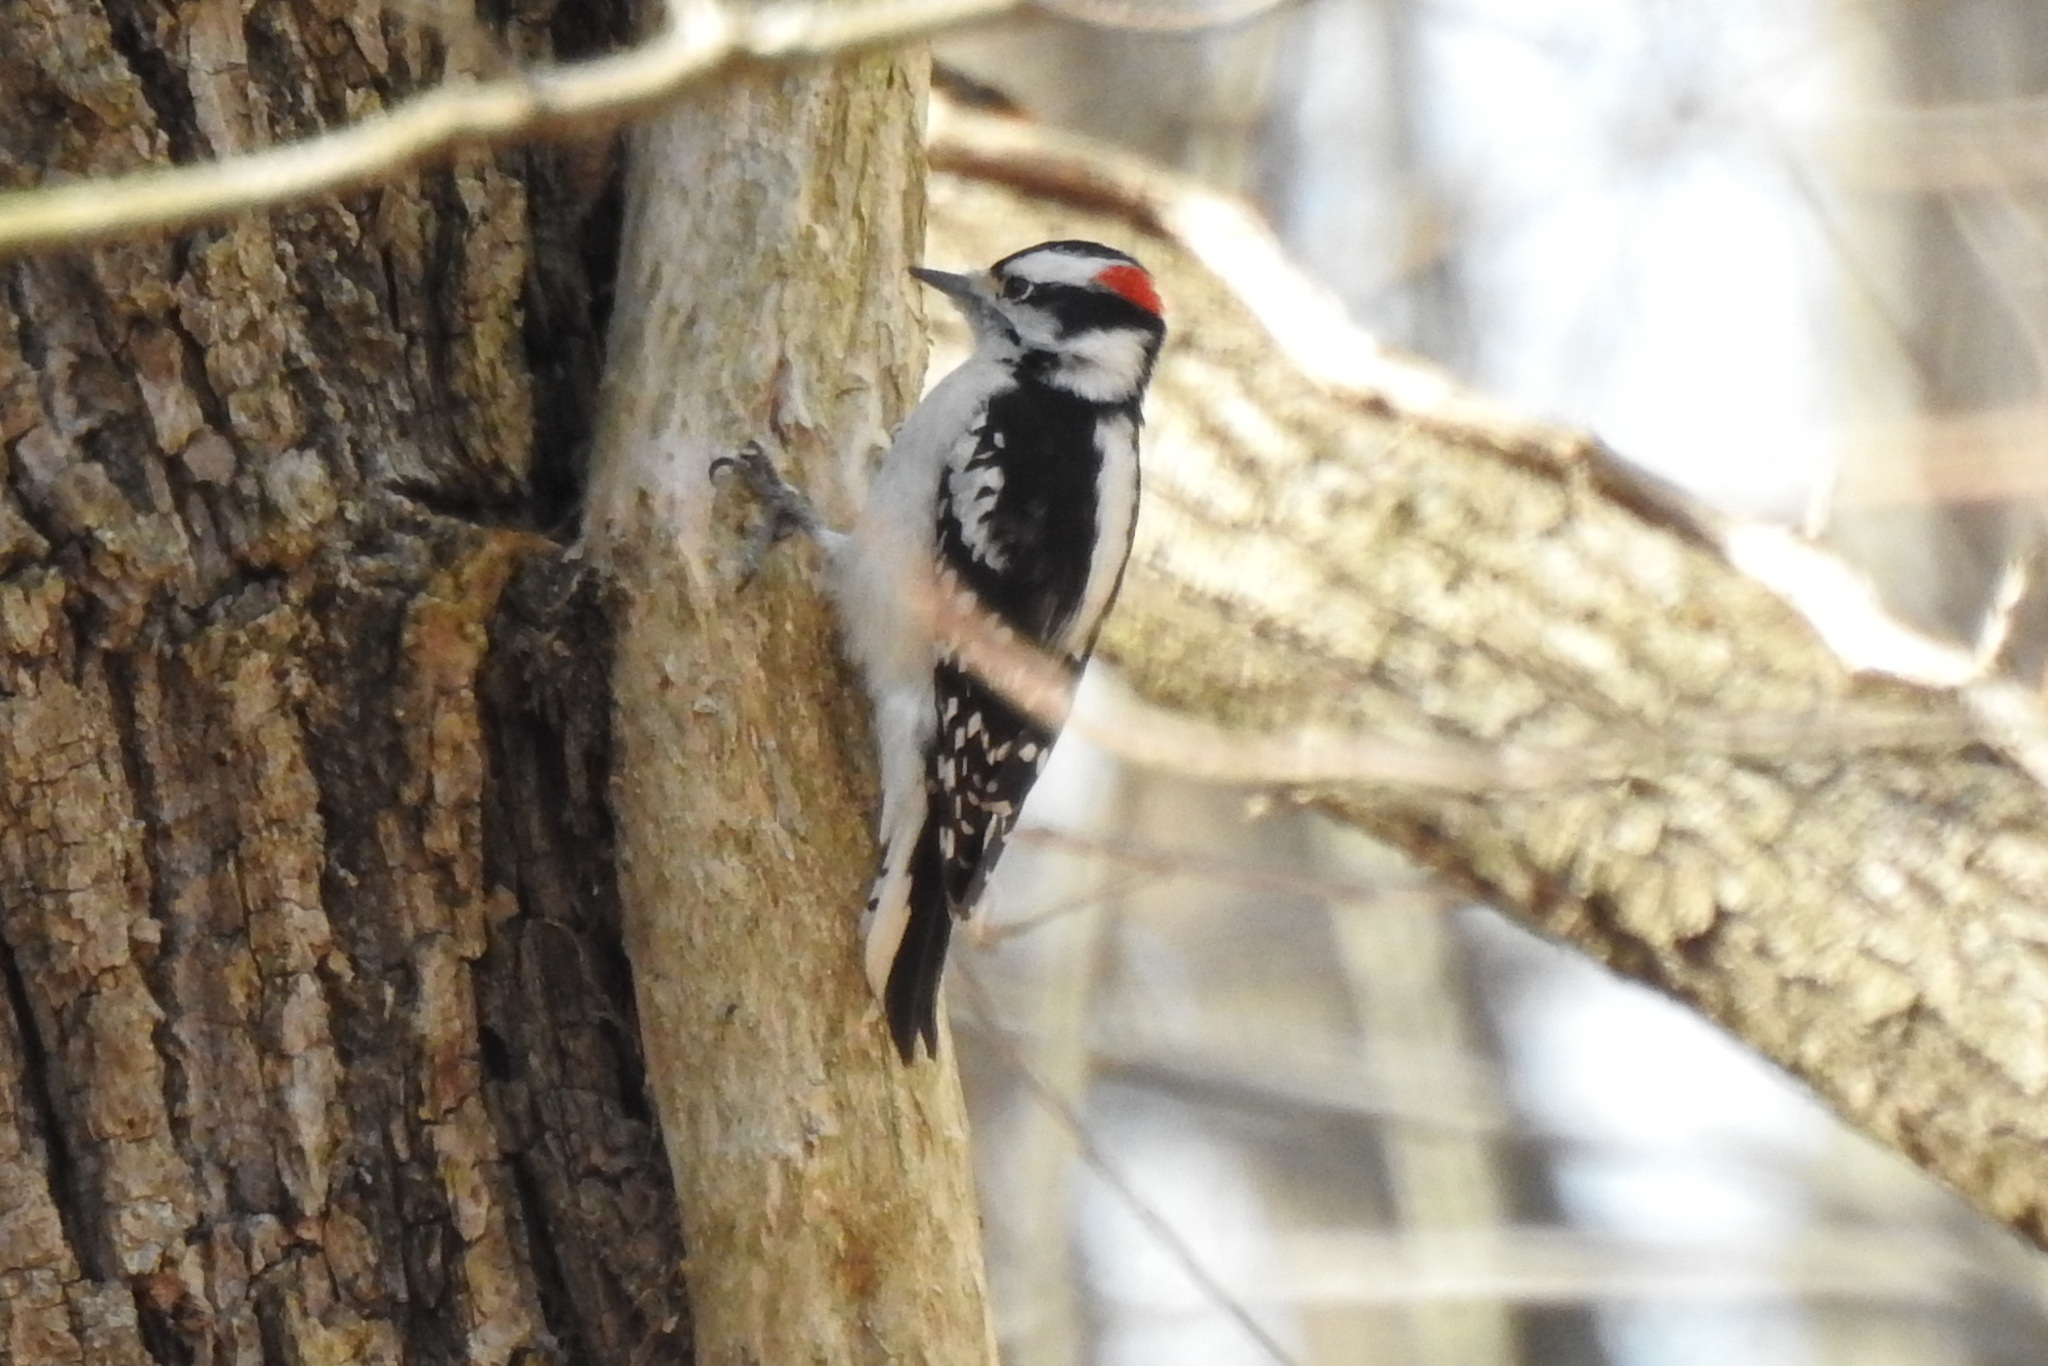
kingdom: Animalia
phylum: Chordata
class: Aves
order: Piciformes
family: Picidae
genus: Dryobates
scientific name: Dryobates pubescens
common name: Downy woodpecker
